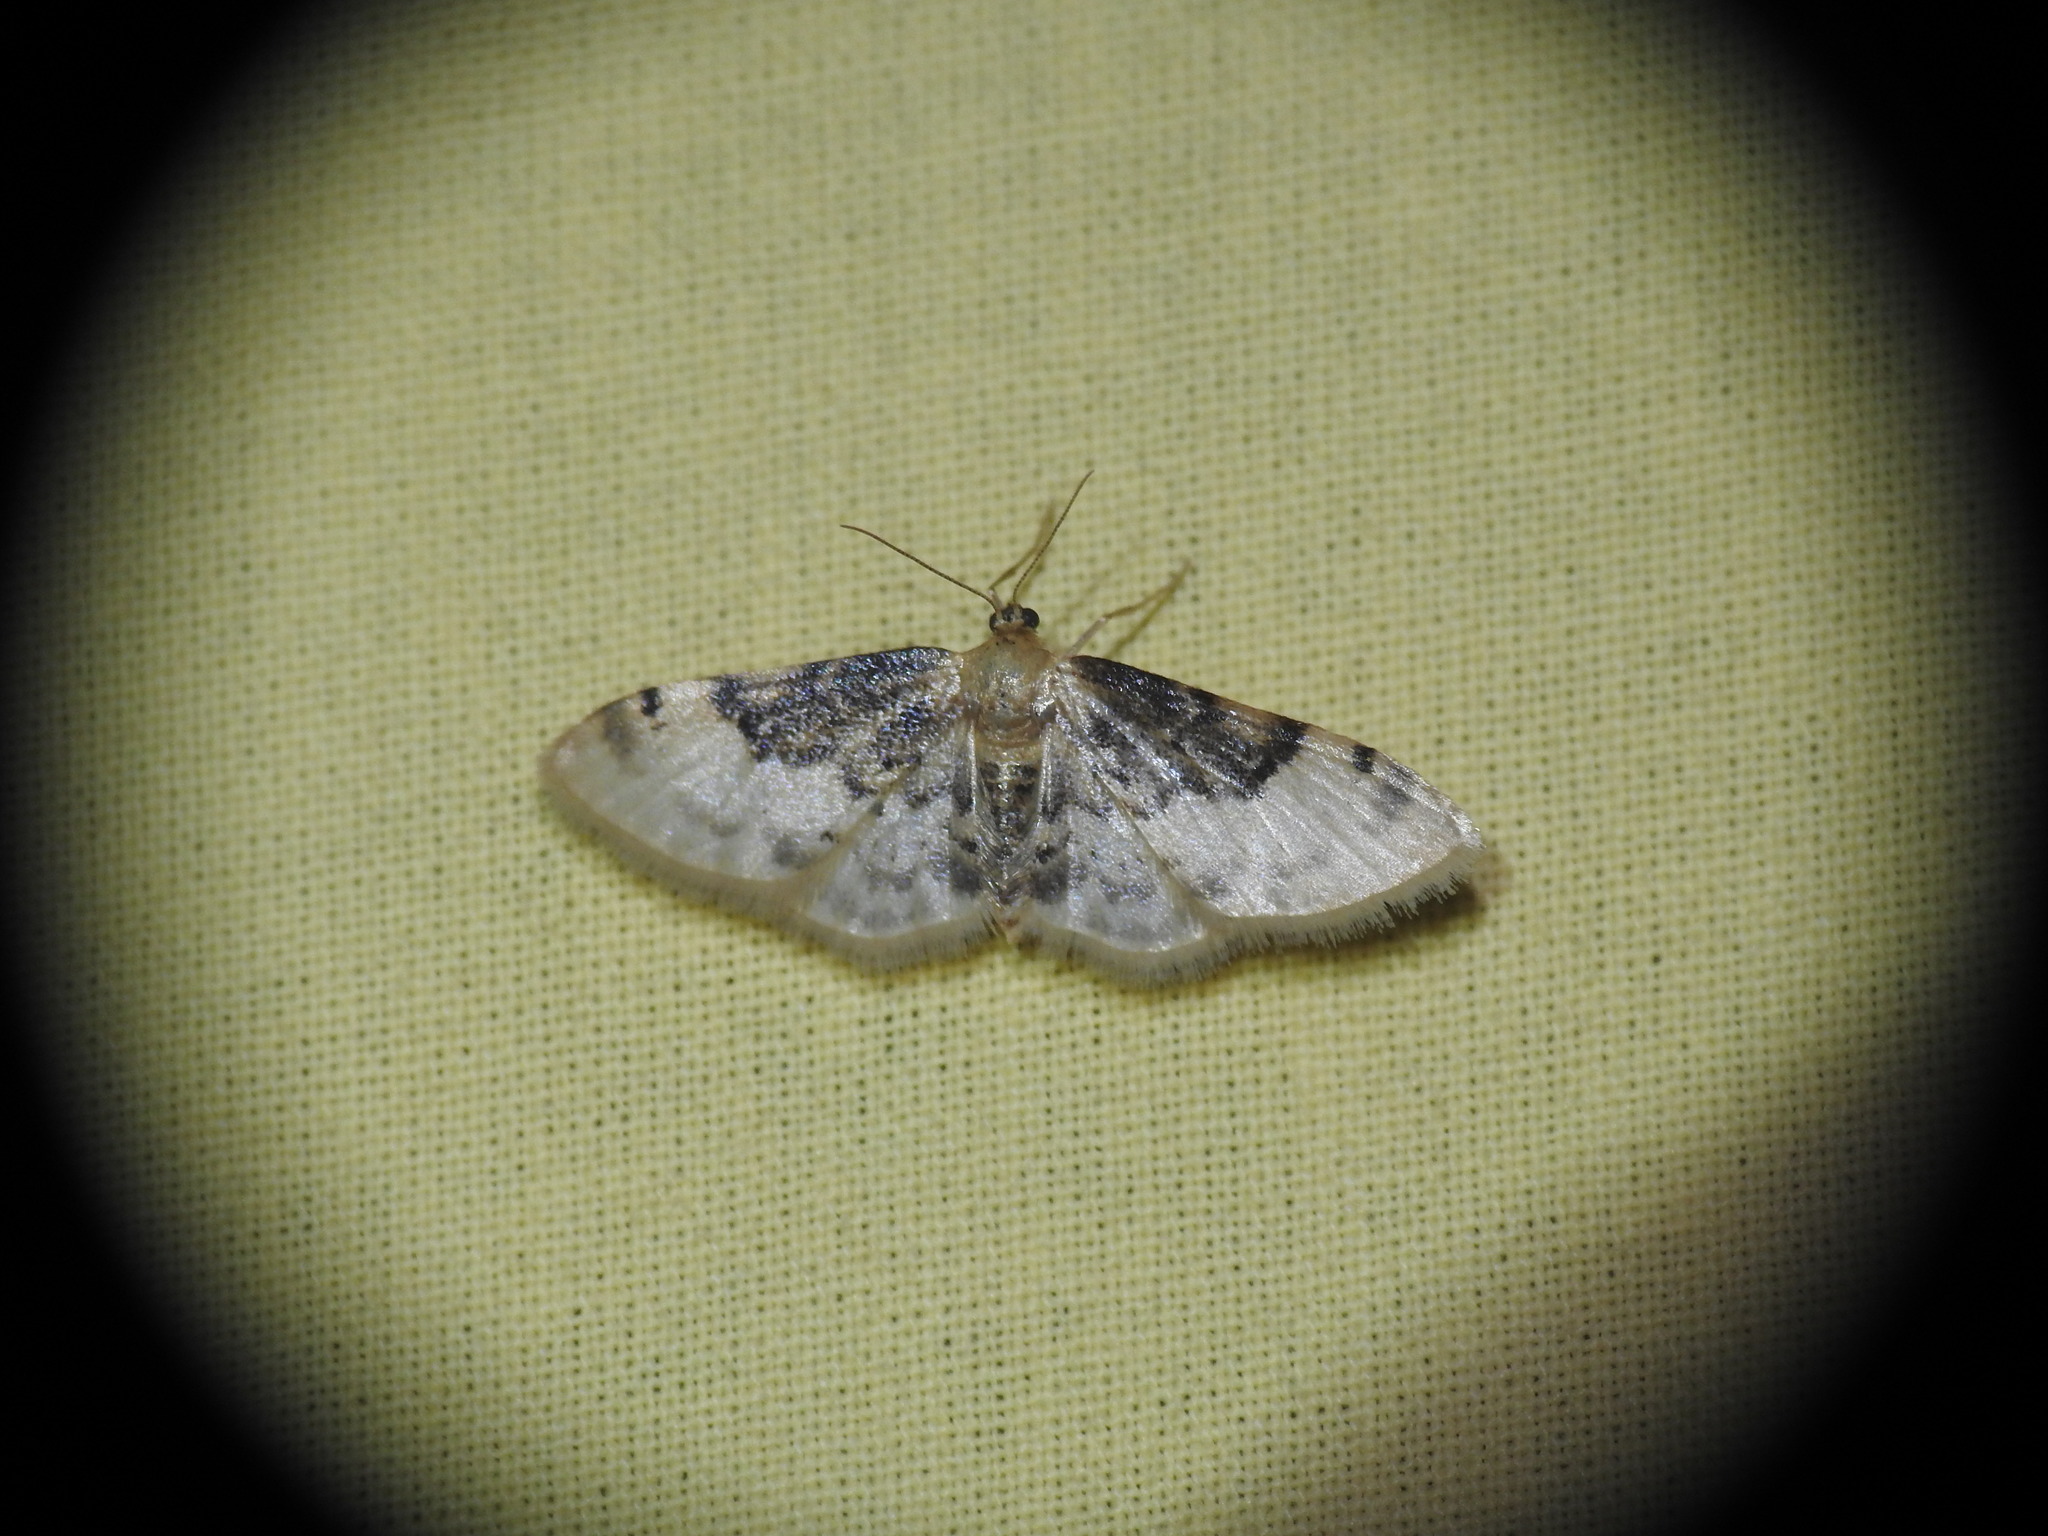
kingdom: Animalia
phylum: Arthropoda
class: Insecta
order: Lepidoptera
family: Geometridae
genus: Idaea
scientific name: Idaea filicata
